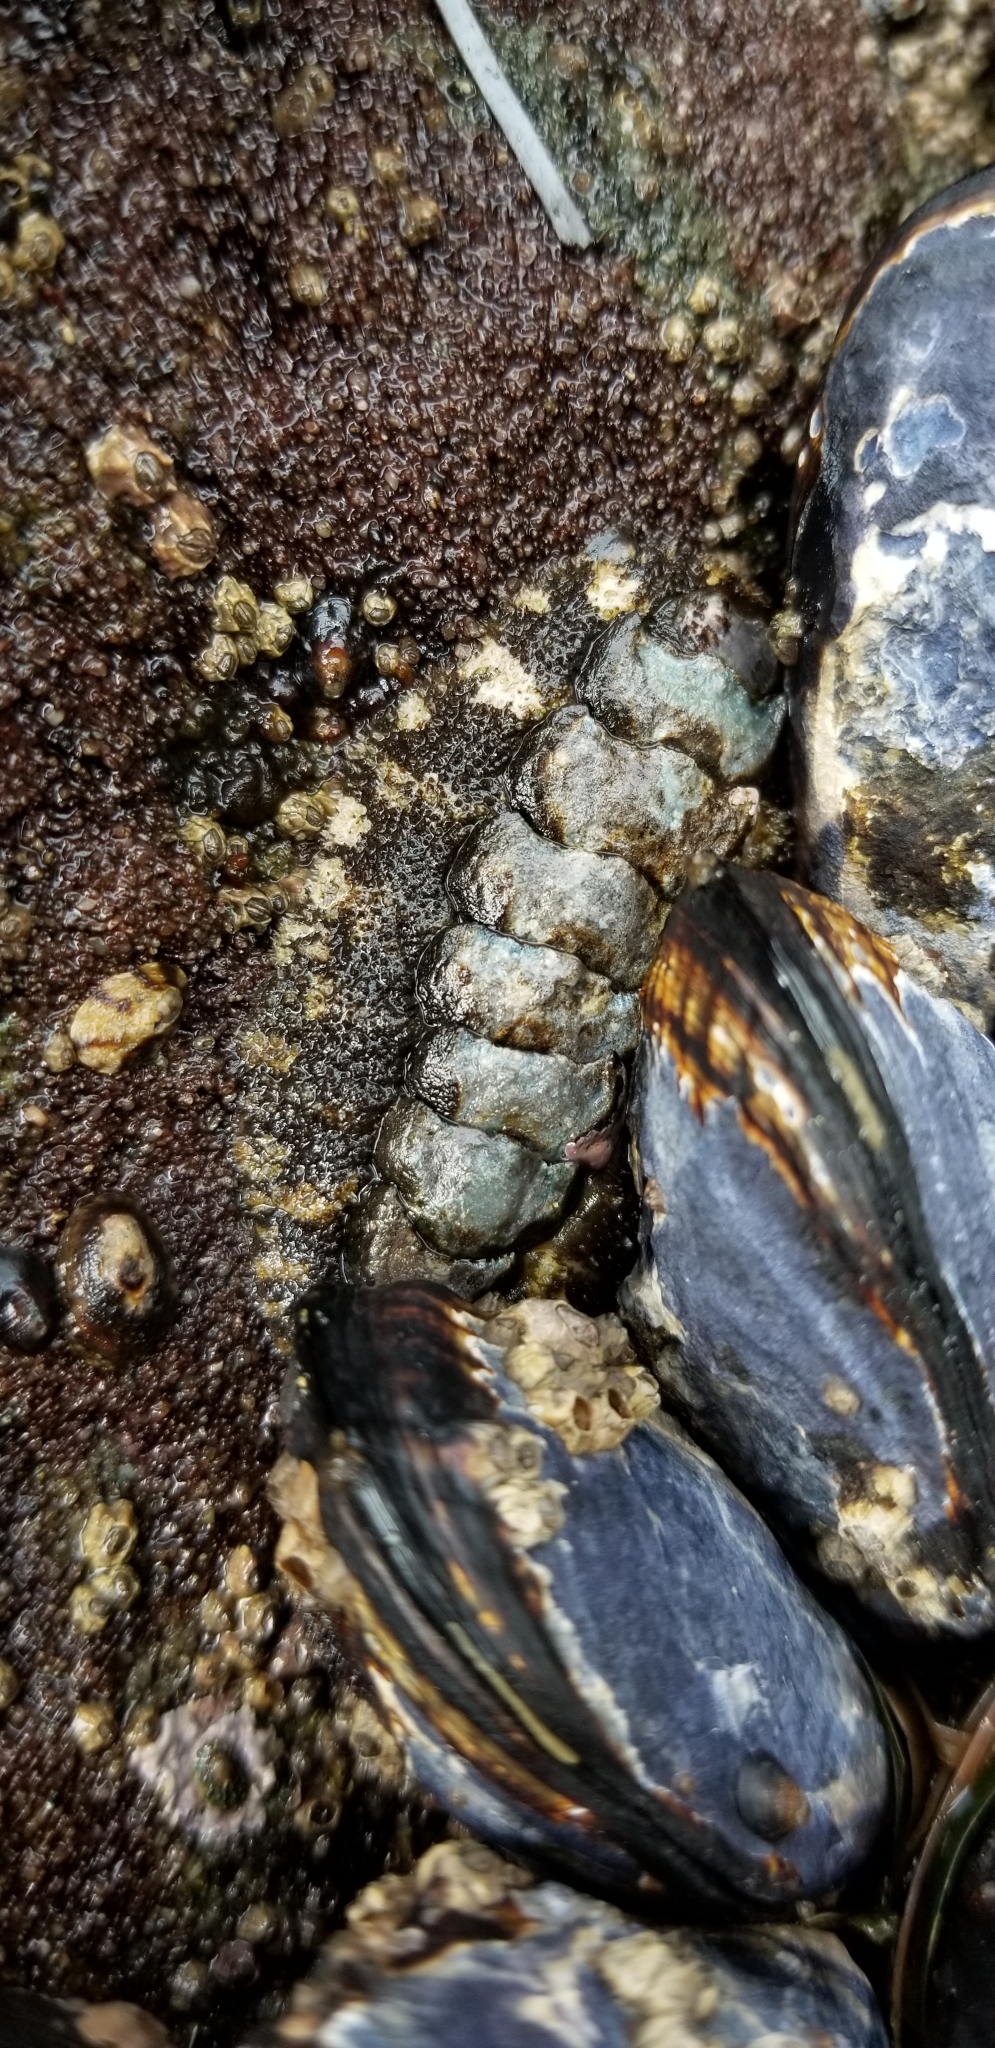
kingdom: Animalia
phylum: Mollusca
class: Polyplacophora
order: Chitonida
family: Tonicellidae
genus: Nuttallina
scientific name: Nuttallina californica
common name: California nuttall chiton
